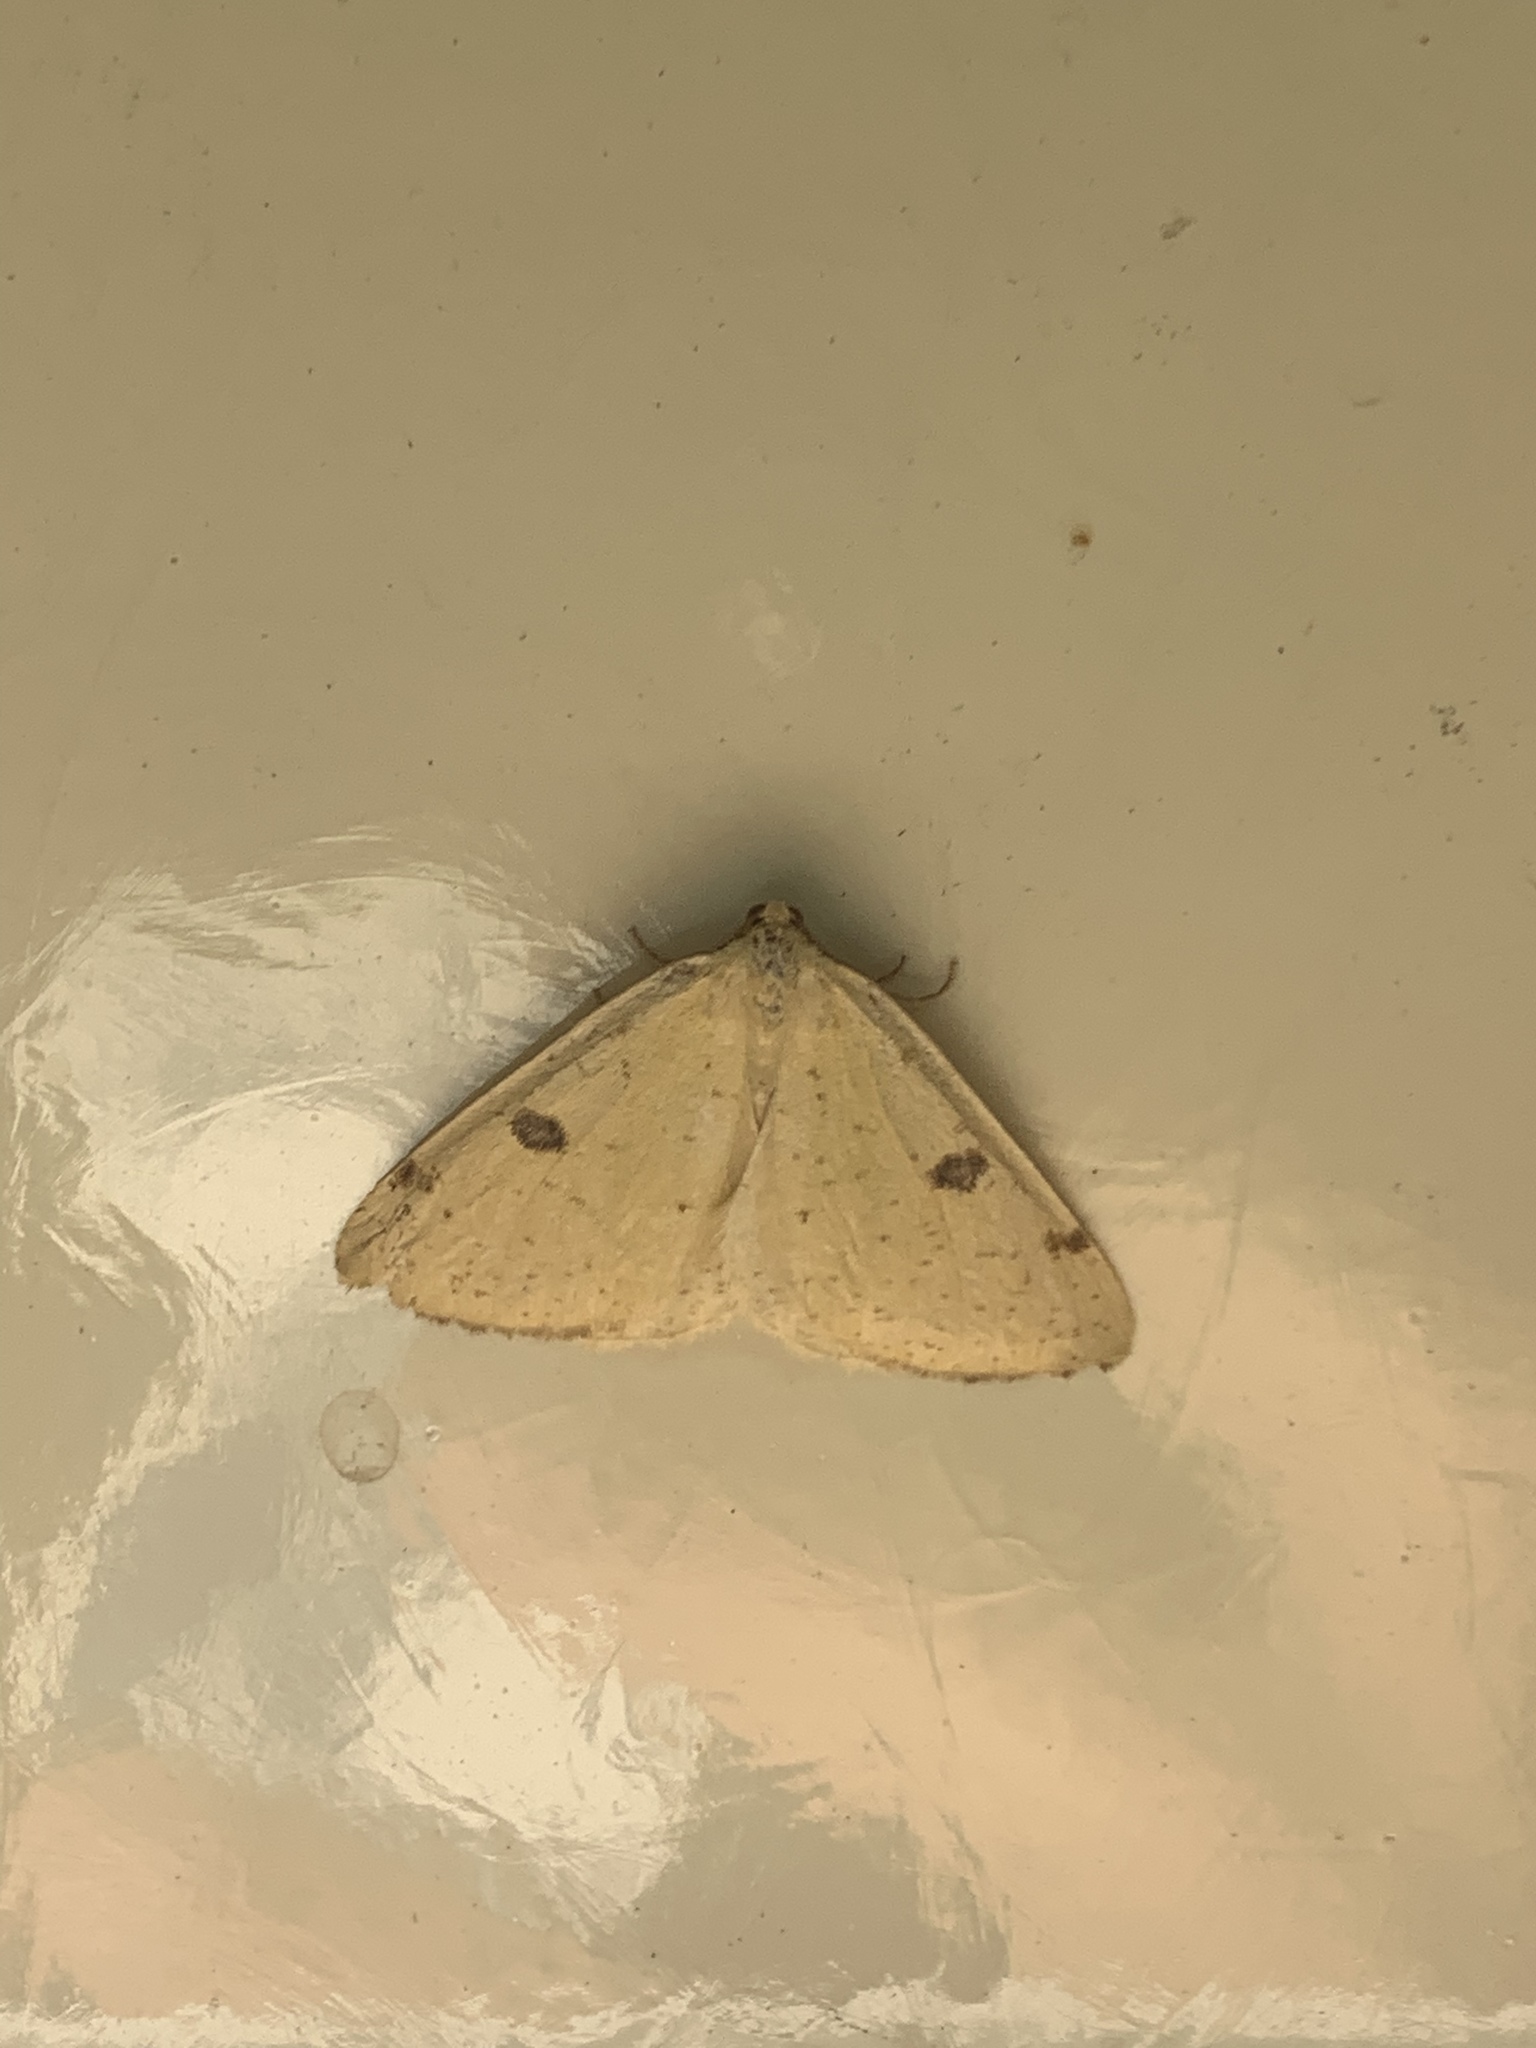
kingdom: Animalia
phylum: Arthropoda
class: Insecta
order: Lepidoptera
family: Geometridae
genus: Hesperumia
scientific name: Hesperumia sulphuraria
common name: Sulphur moth
